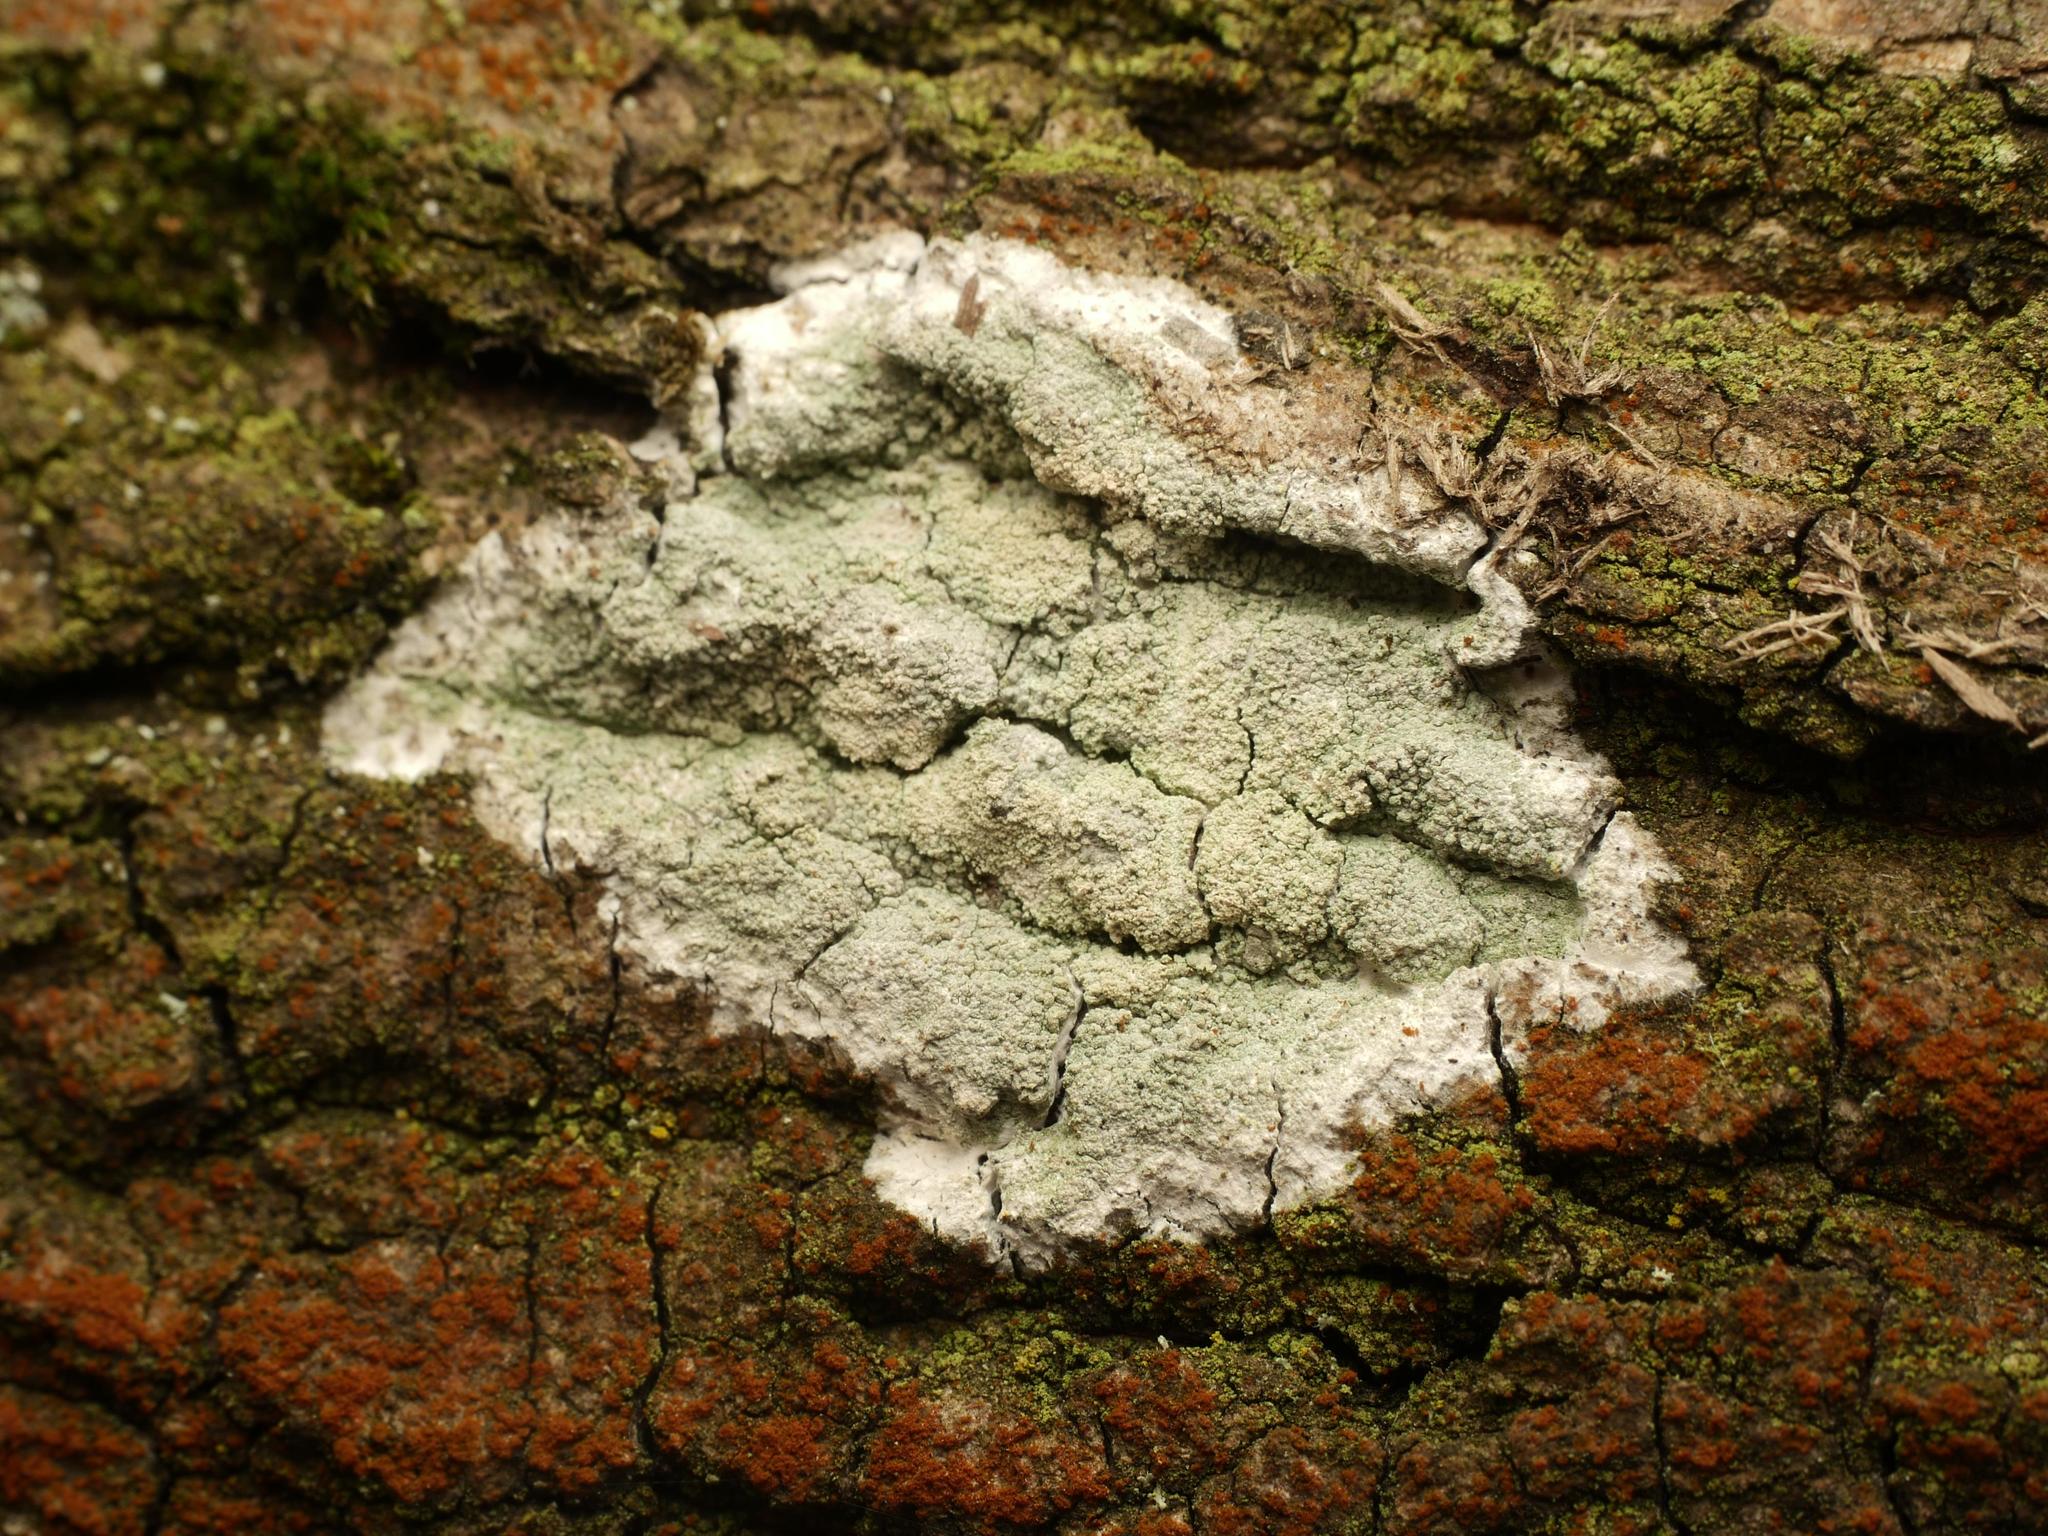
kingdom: Fungi
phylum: Ascomycota
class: Lecanoromycetes
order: Ostropales
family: Phlyctidaceae
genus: Phlyctis
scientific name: Phlyctis argena
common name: Whitewash lichen
